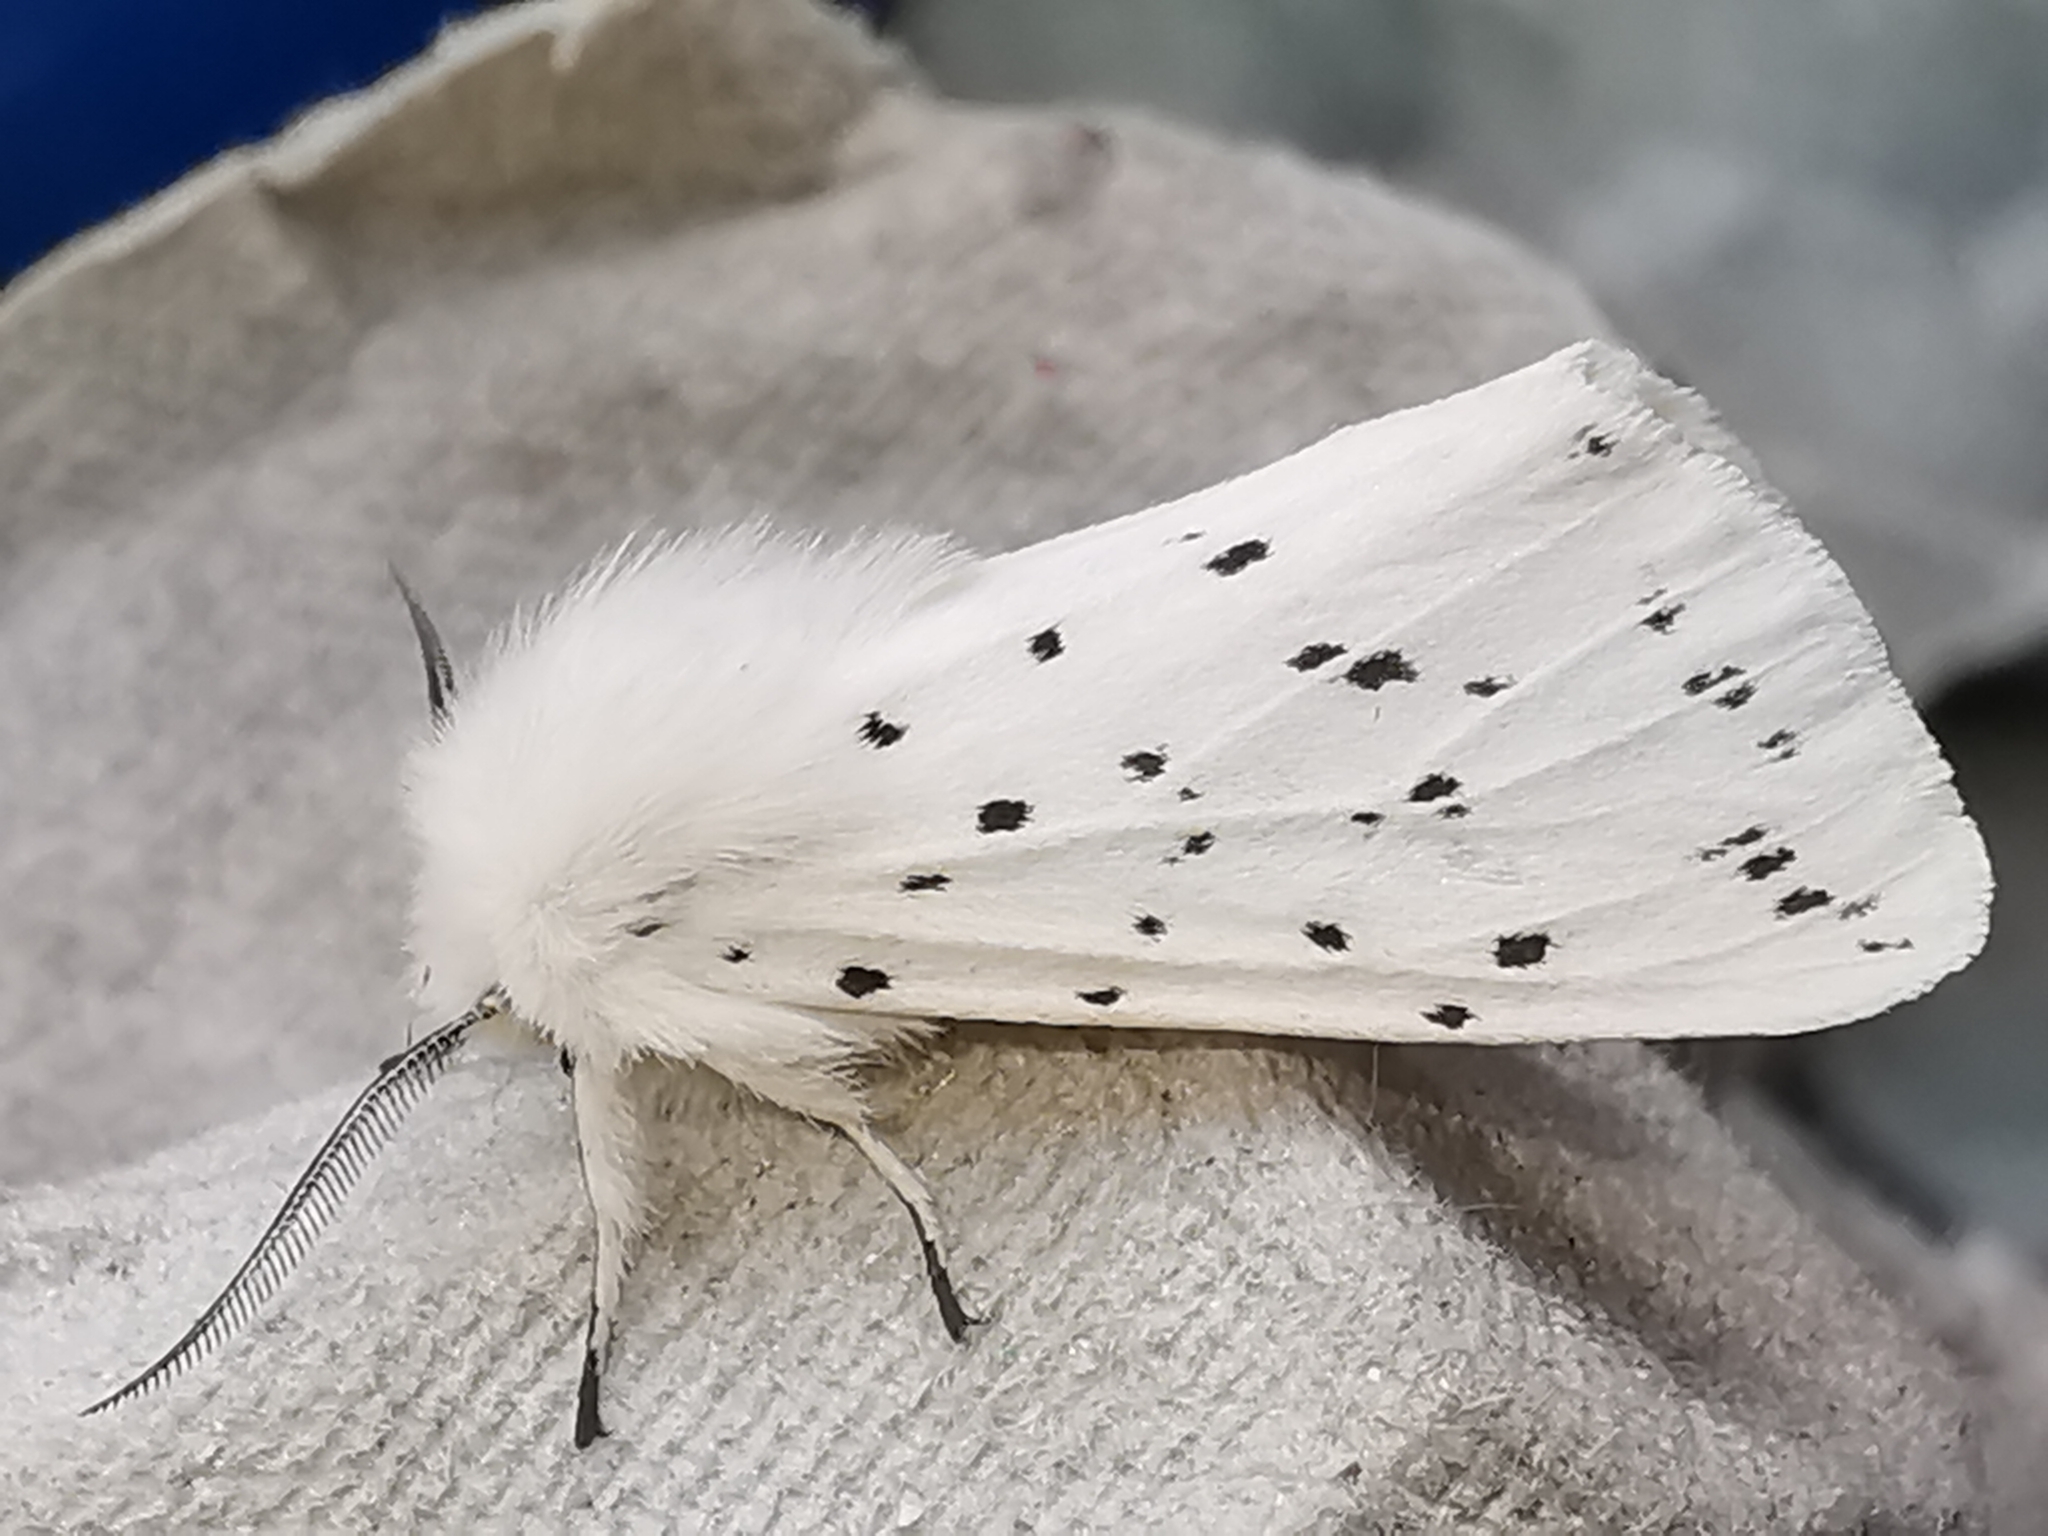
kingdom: Animalia
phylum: Arthropoda
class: Insecta
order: Lepidoptera
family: Erebidae
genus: Spilosoma
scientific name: Spilosoma lubricipeda
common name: White ermine
